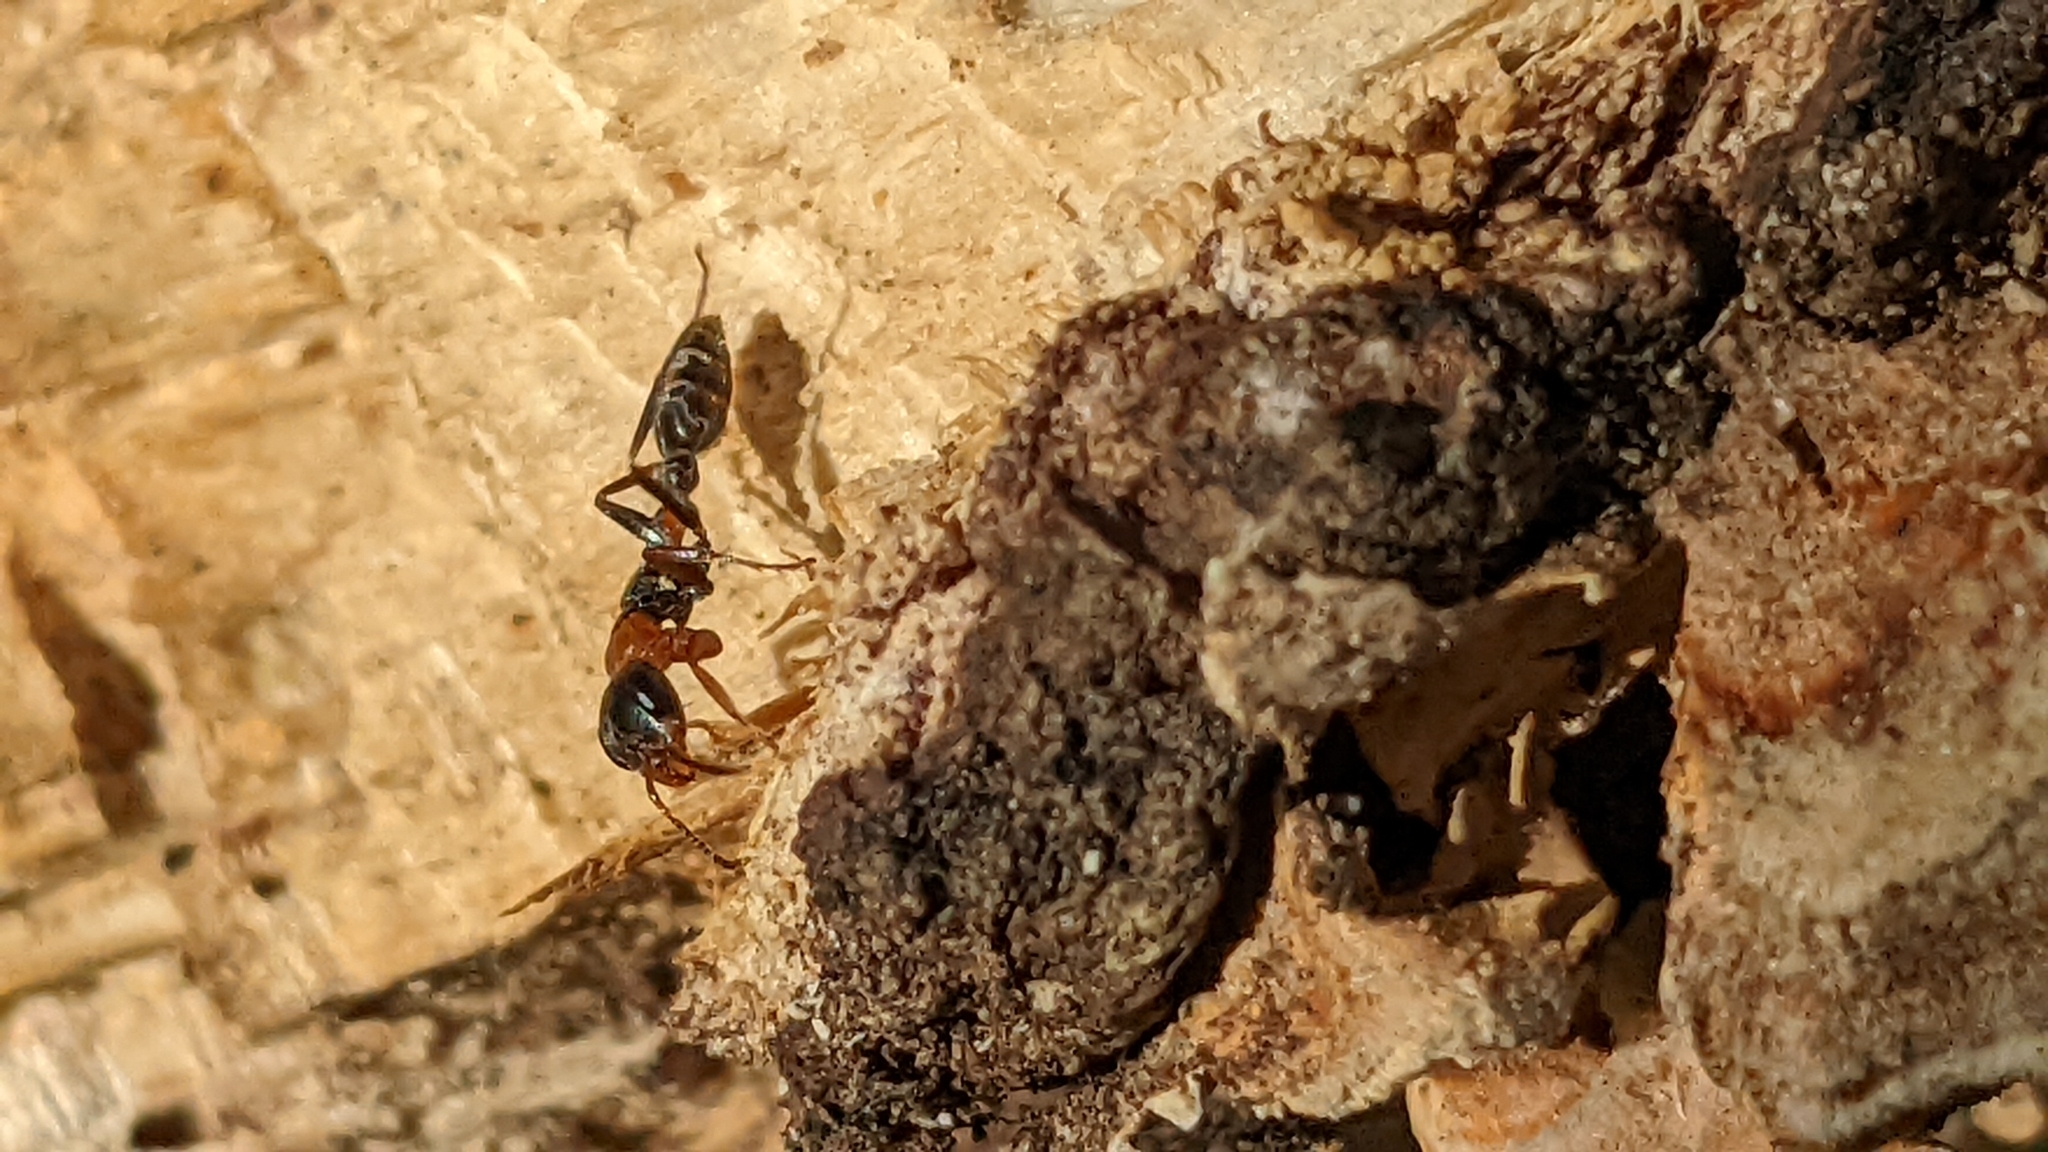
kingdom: Animalia
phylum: Arthropoda
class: Insecta
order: Hymenoptera
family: Formicidae
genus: Pseudomyrmex
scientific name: Pseudomyrmex gracilis
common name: Graceful twig ant
